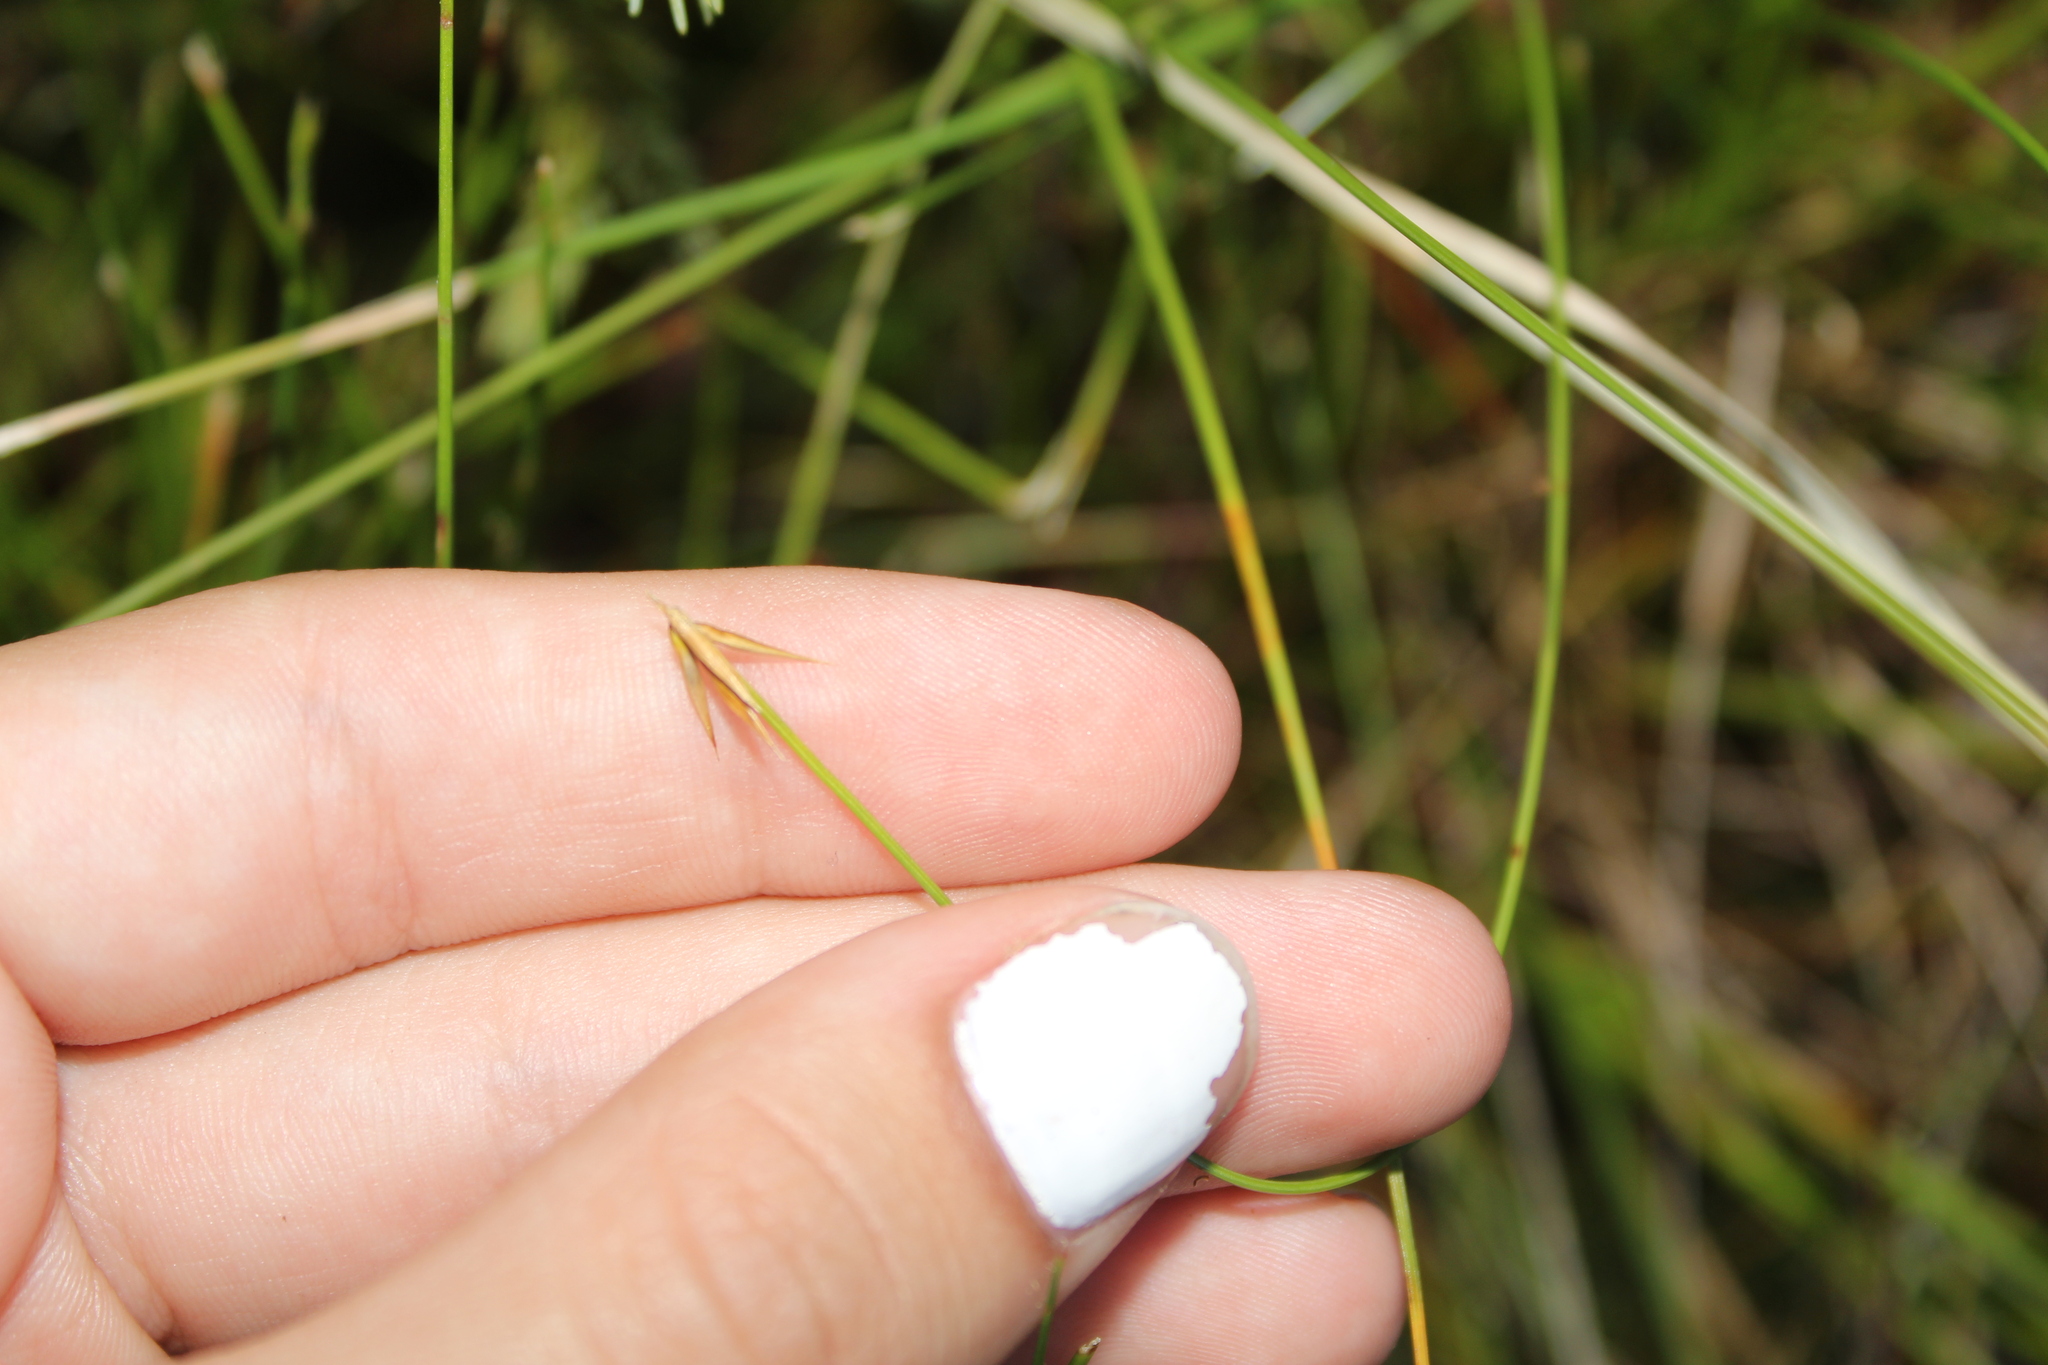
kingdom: Plantae
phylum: Tracheophyta
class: Liliopsida
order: Poales
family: Cyperaceae
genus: Carex
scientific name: Carex pauciflora
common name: Few-flowered sedge
